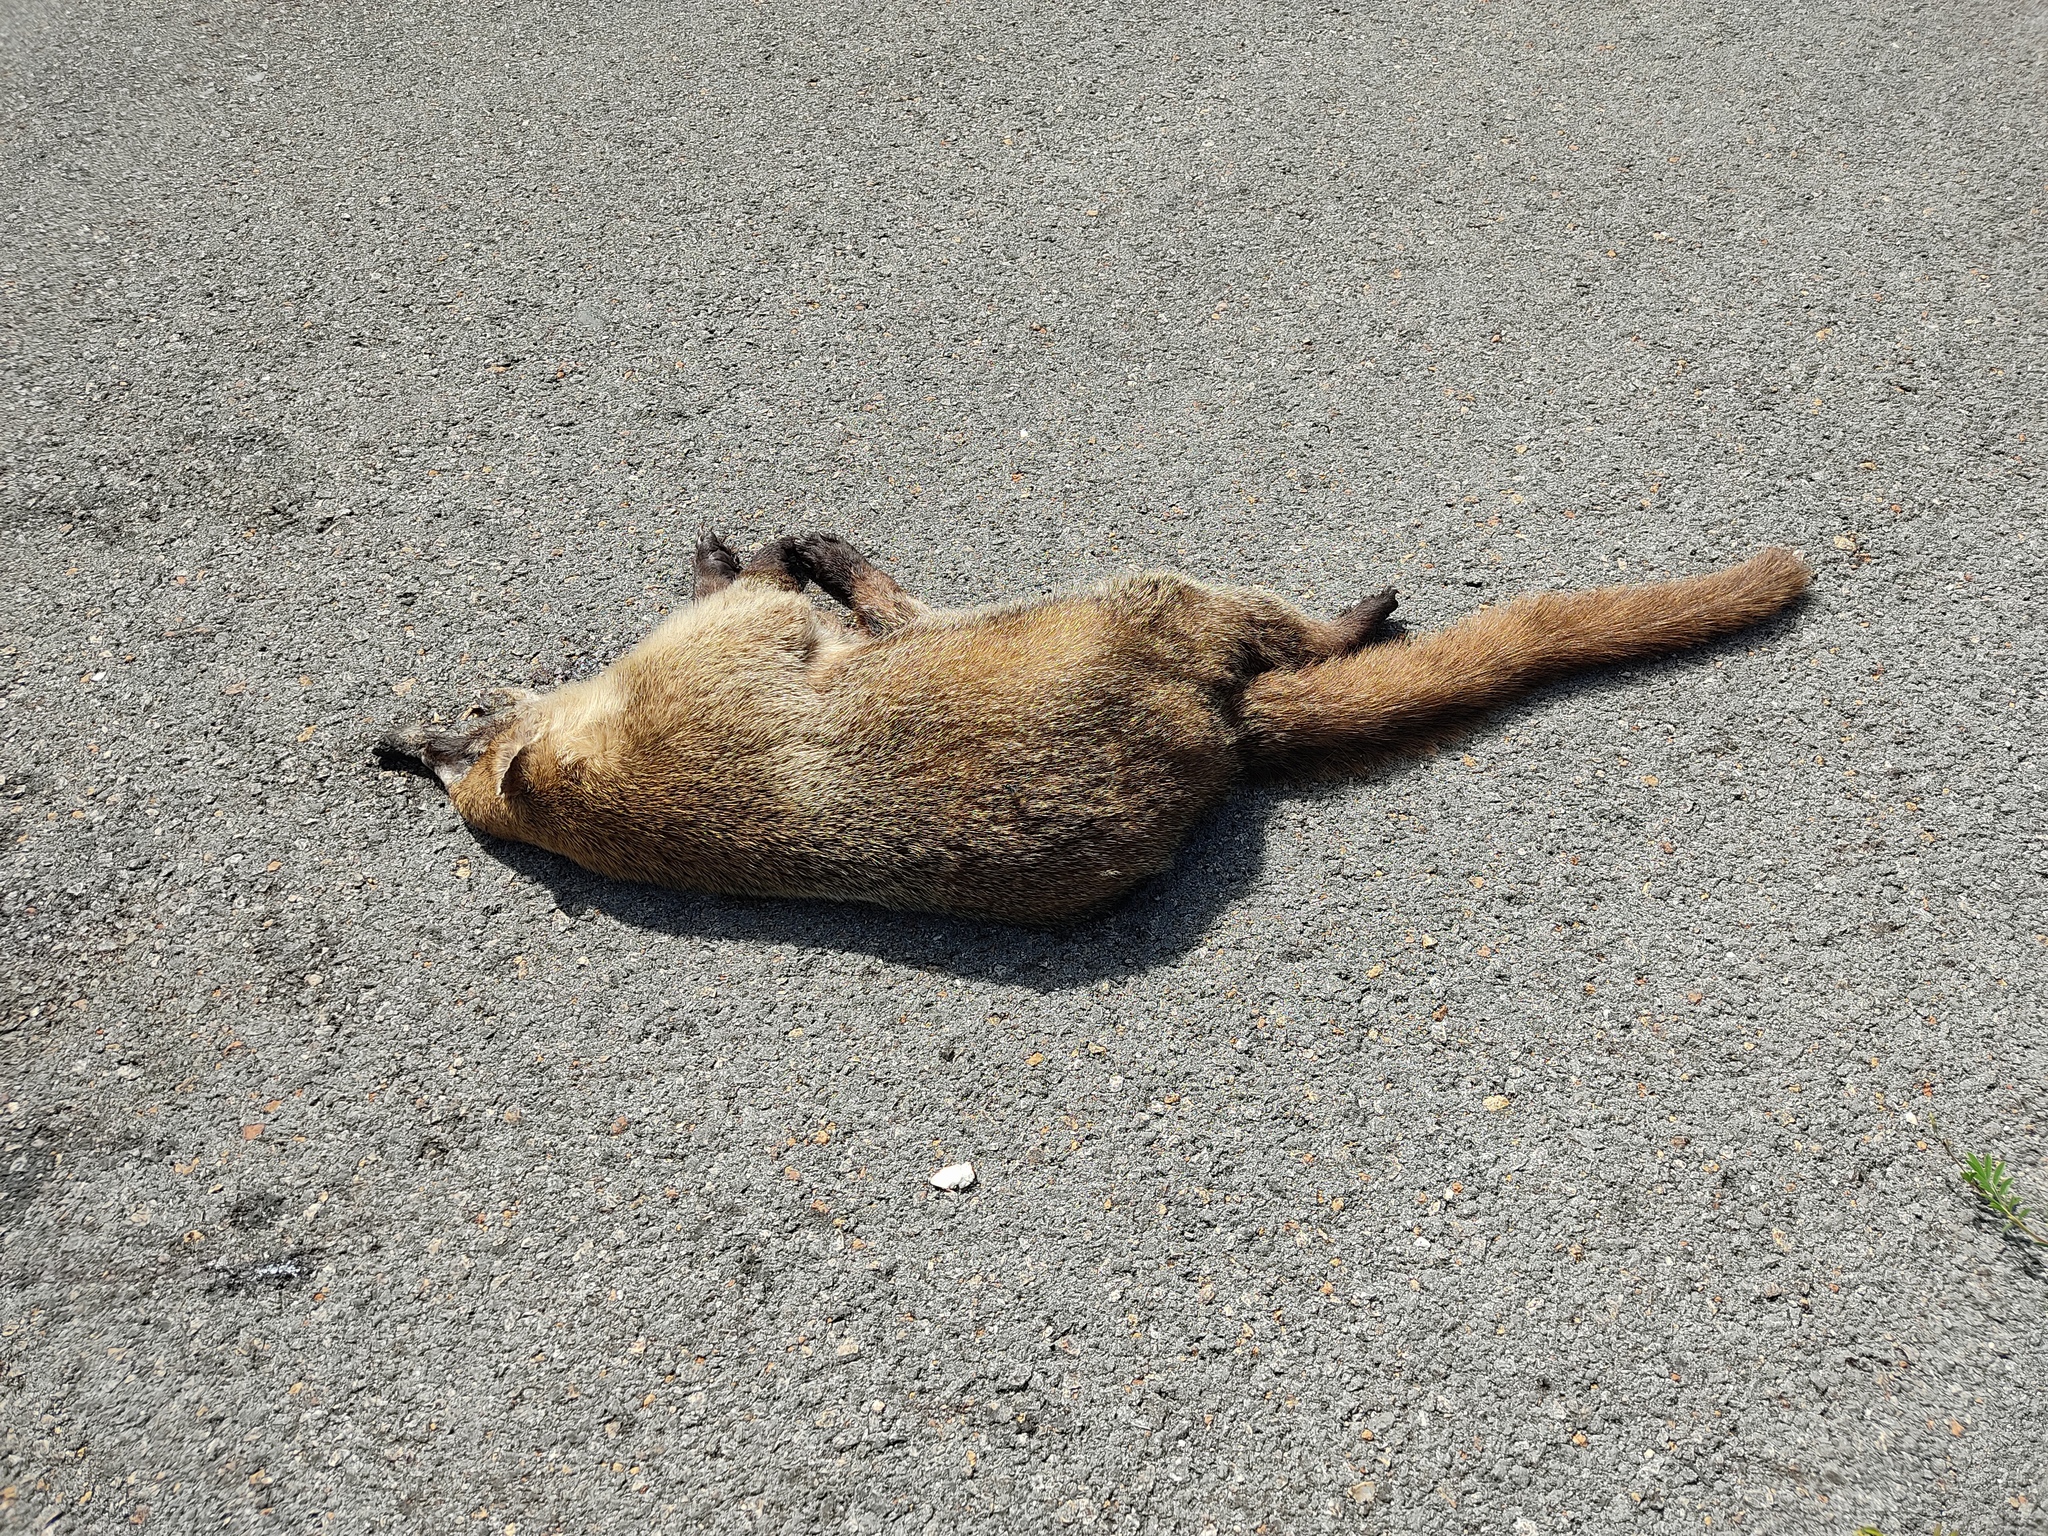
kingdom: Animalia
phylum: Chordata
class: Mammalia
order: Carnivora
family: Procyonidae
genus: Nasua
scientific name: Nasua narica
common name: White-nosed coati
